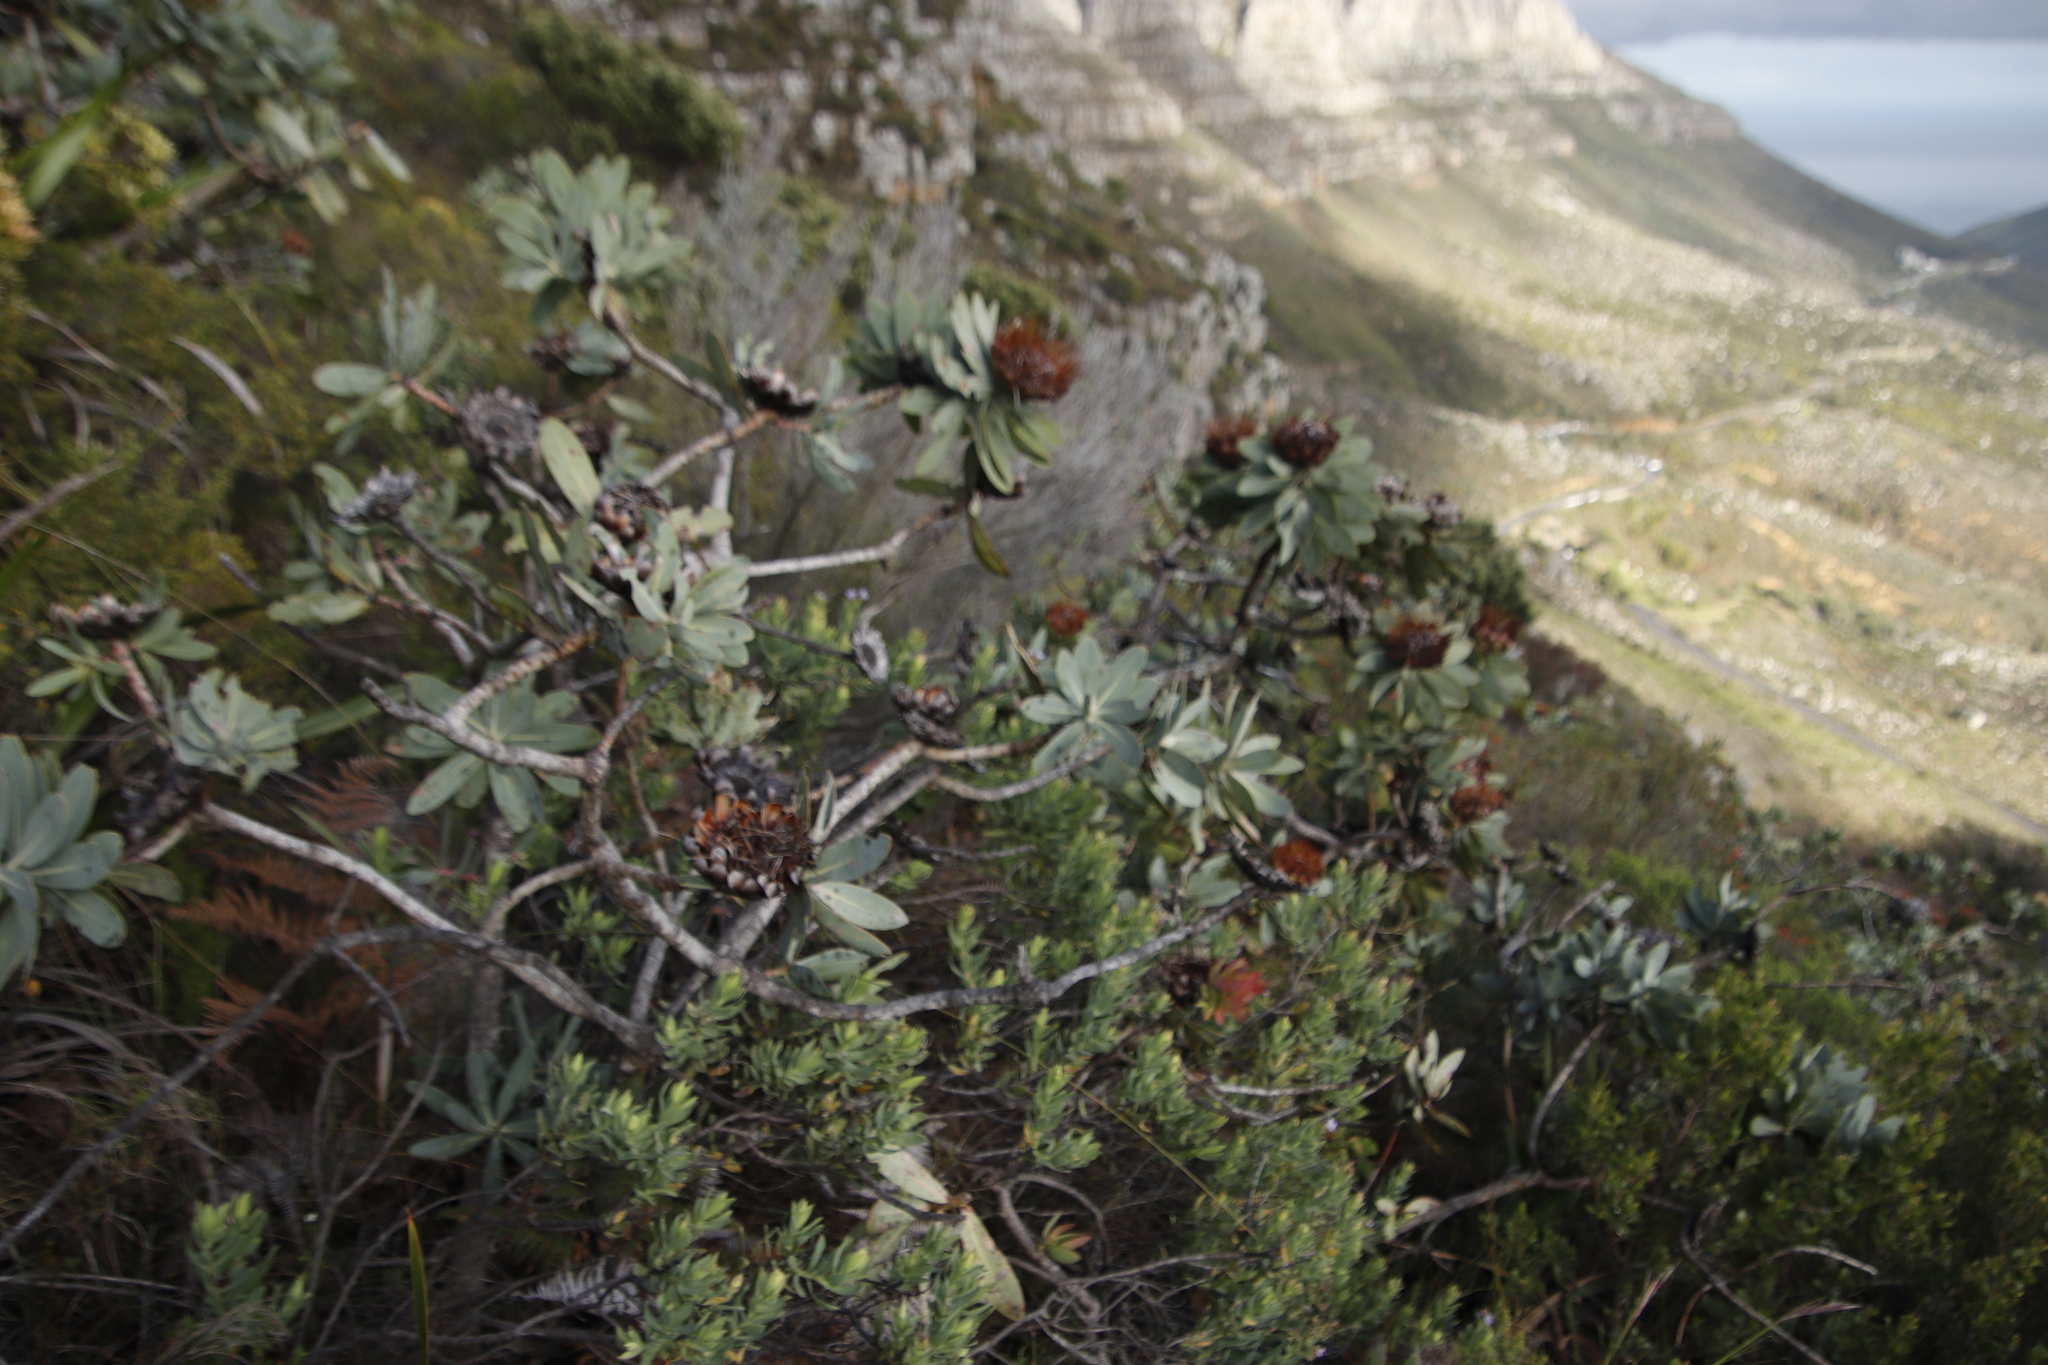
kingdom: Plantae
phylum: Tracheophyta
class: Magnoliopsida
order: Proteales
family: Proteaceae
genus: Protea
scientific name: Protea nitida
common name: Tree protea
